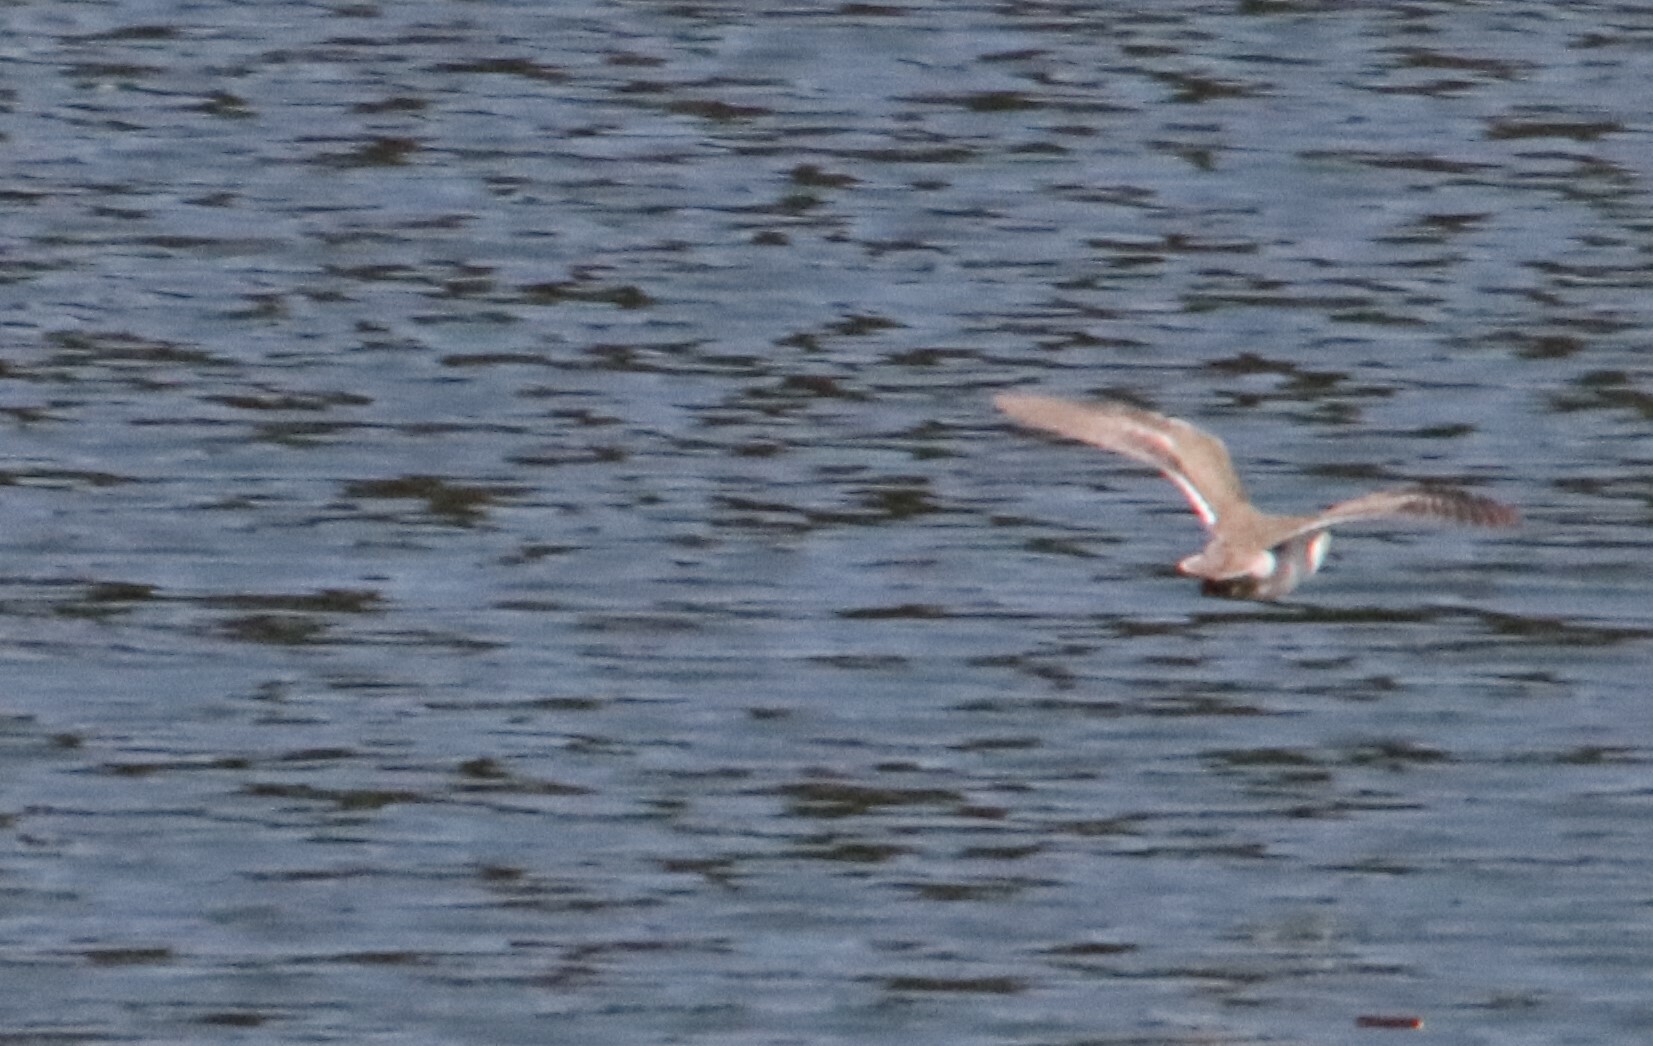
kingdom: Animalia
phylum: Chordata
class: Aves
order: Charadriiformes
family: Scolopacidae
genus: Actitis
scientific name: Actitis macularius
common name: Spotted sandpiper
